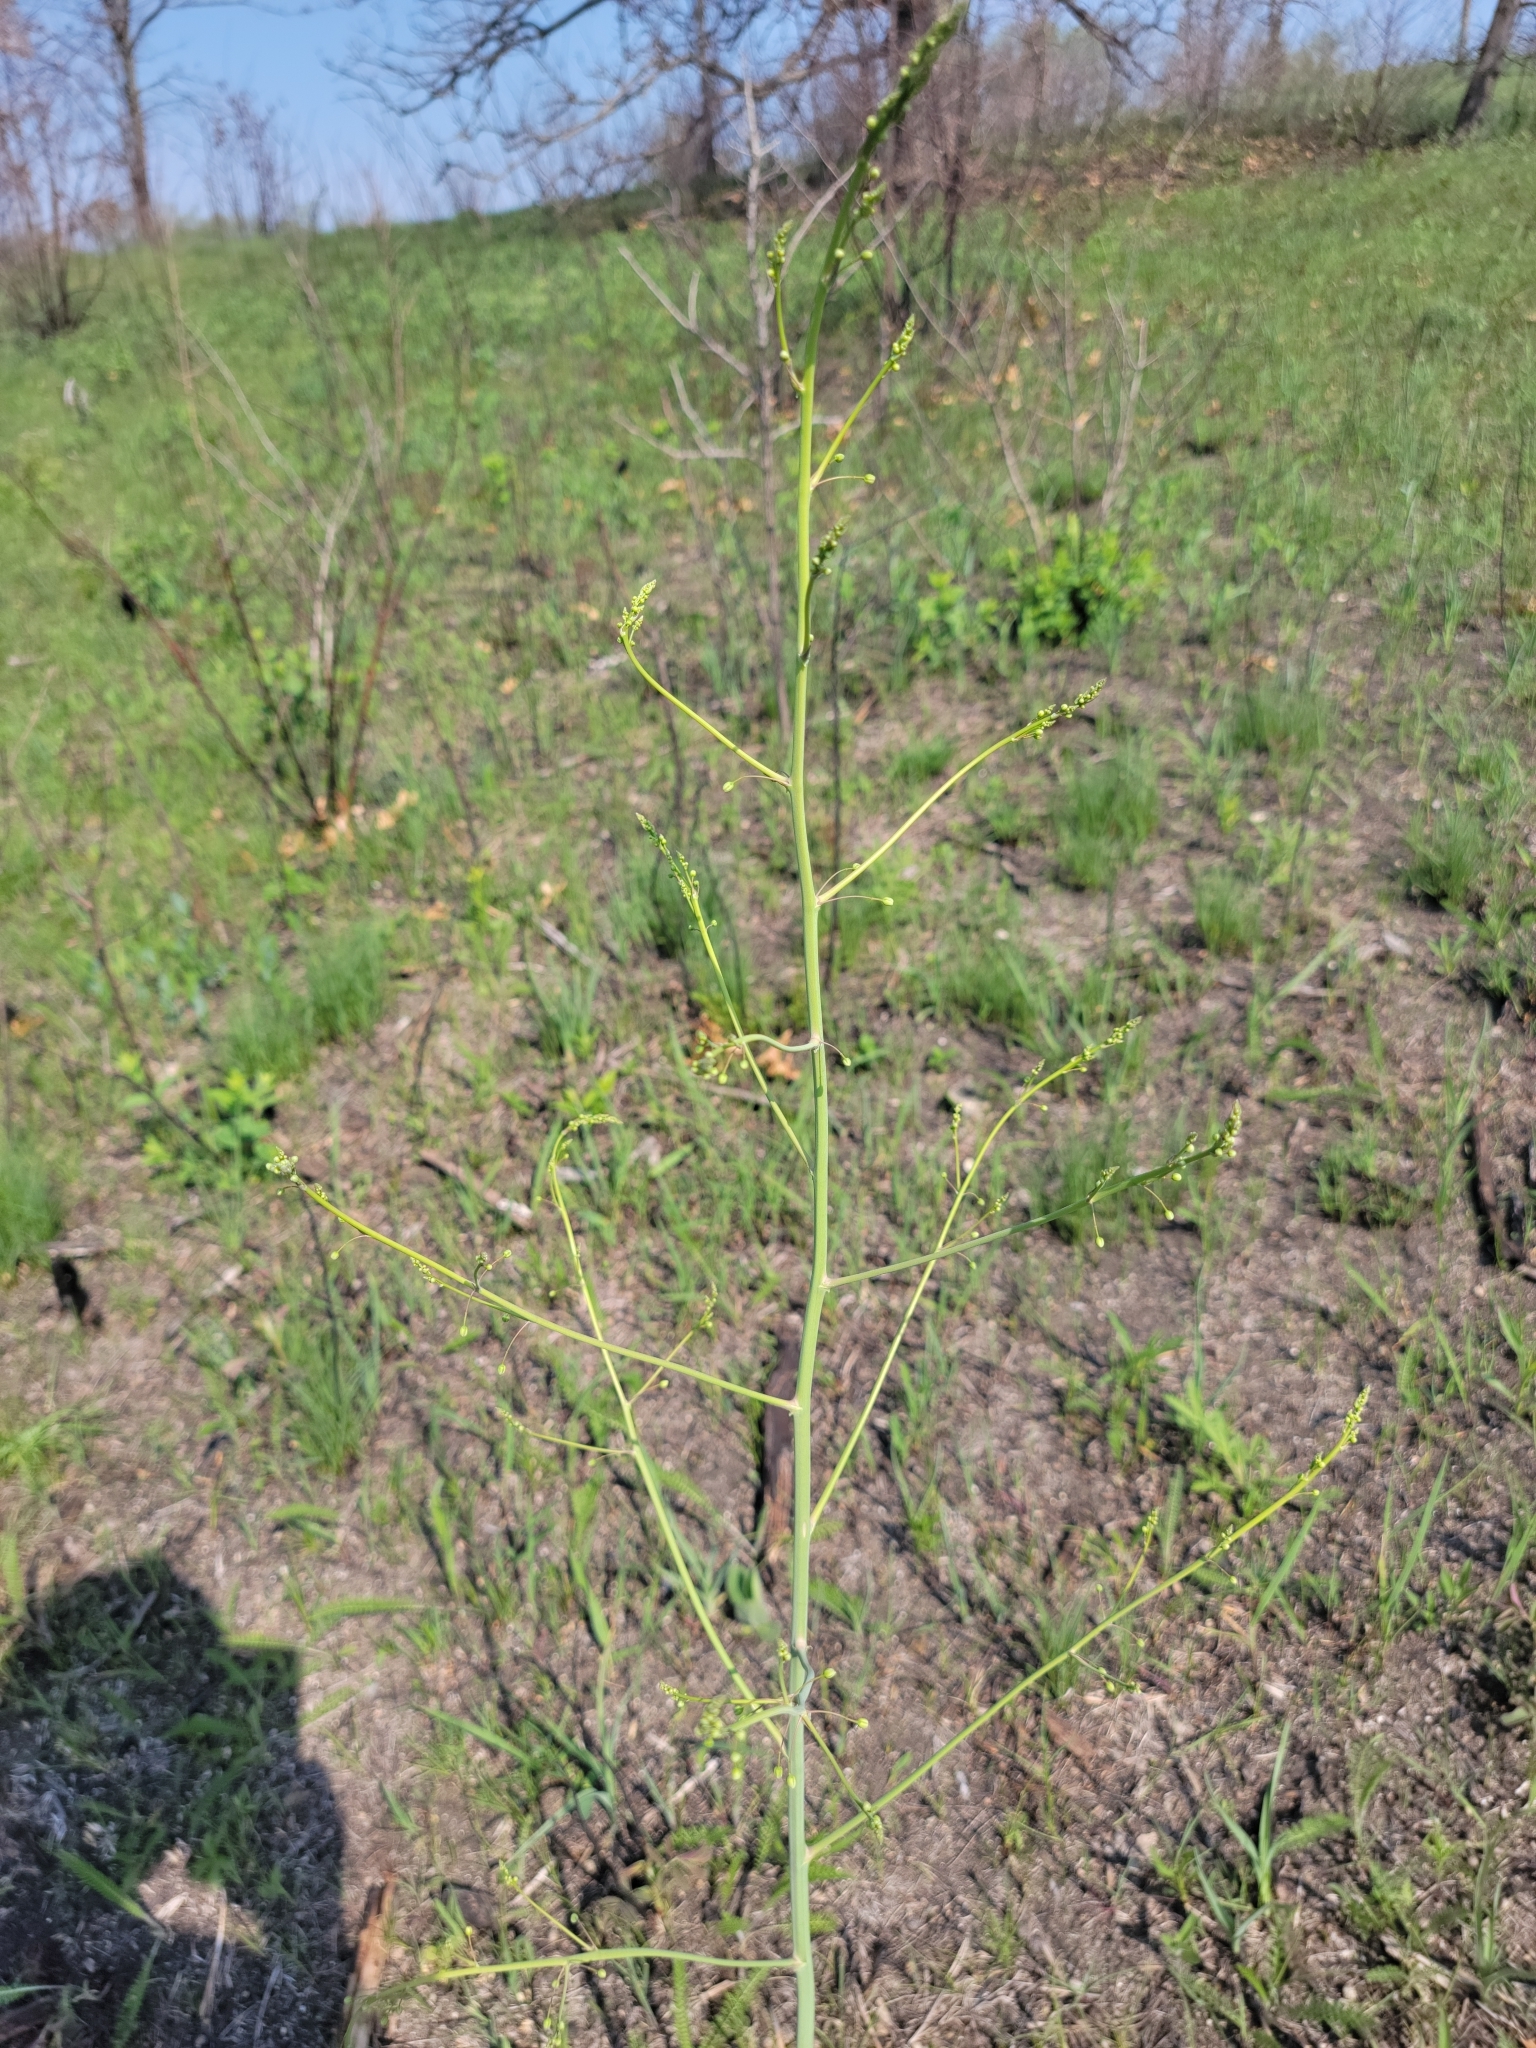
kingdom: Plantae
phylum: Tracheophyta
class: Liliopsida
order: Asparagales
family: Asparagaceae
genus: Asparagus
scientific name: Asparagus officinalis
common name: Garden asparagus
